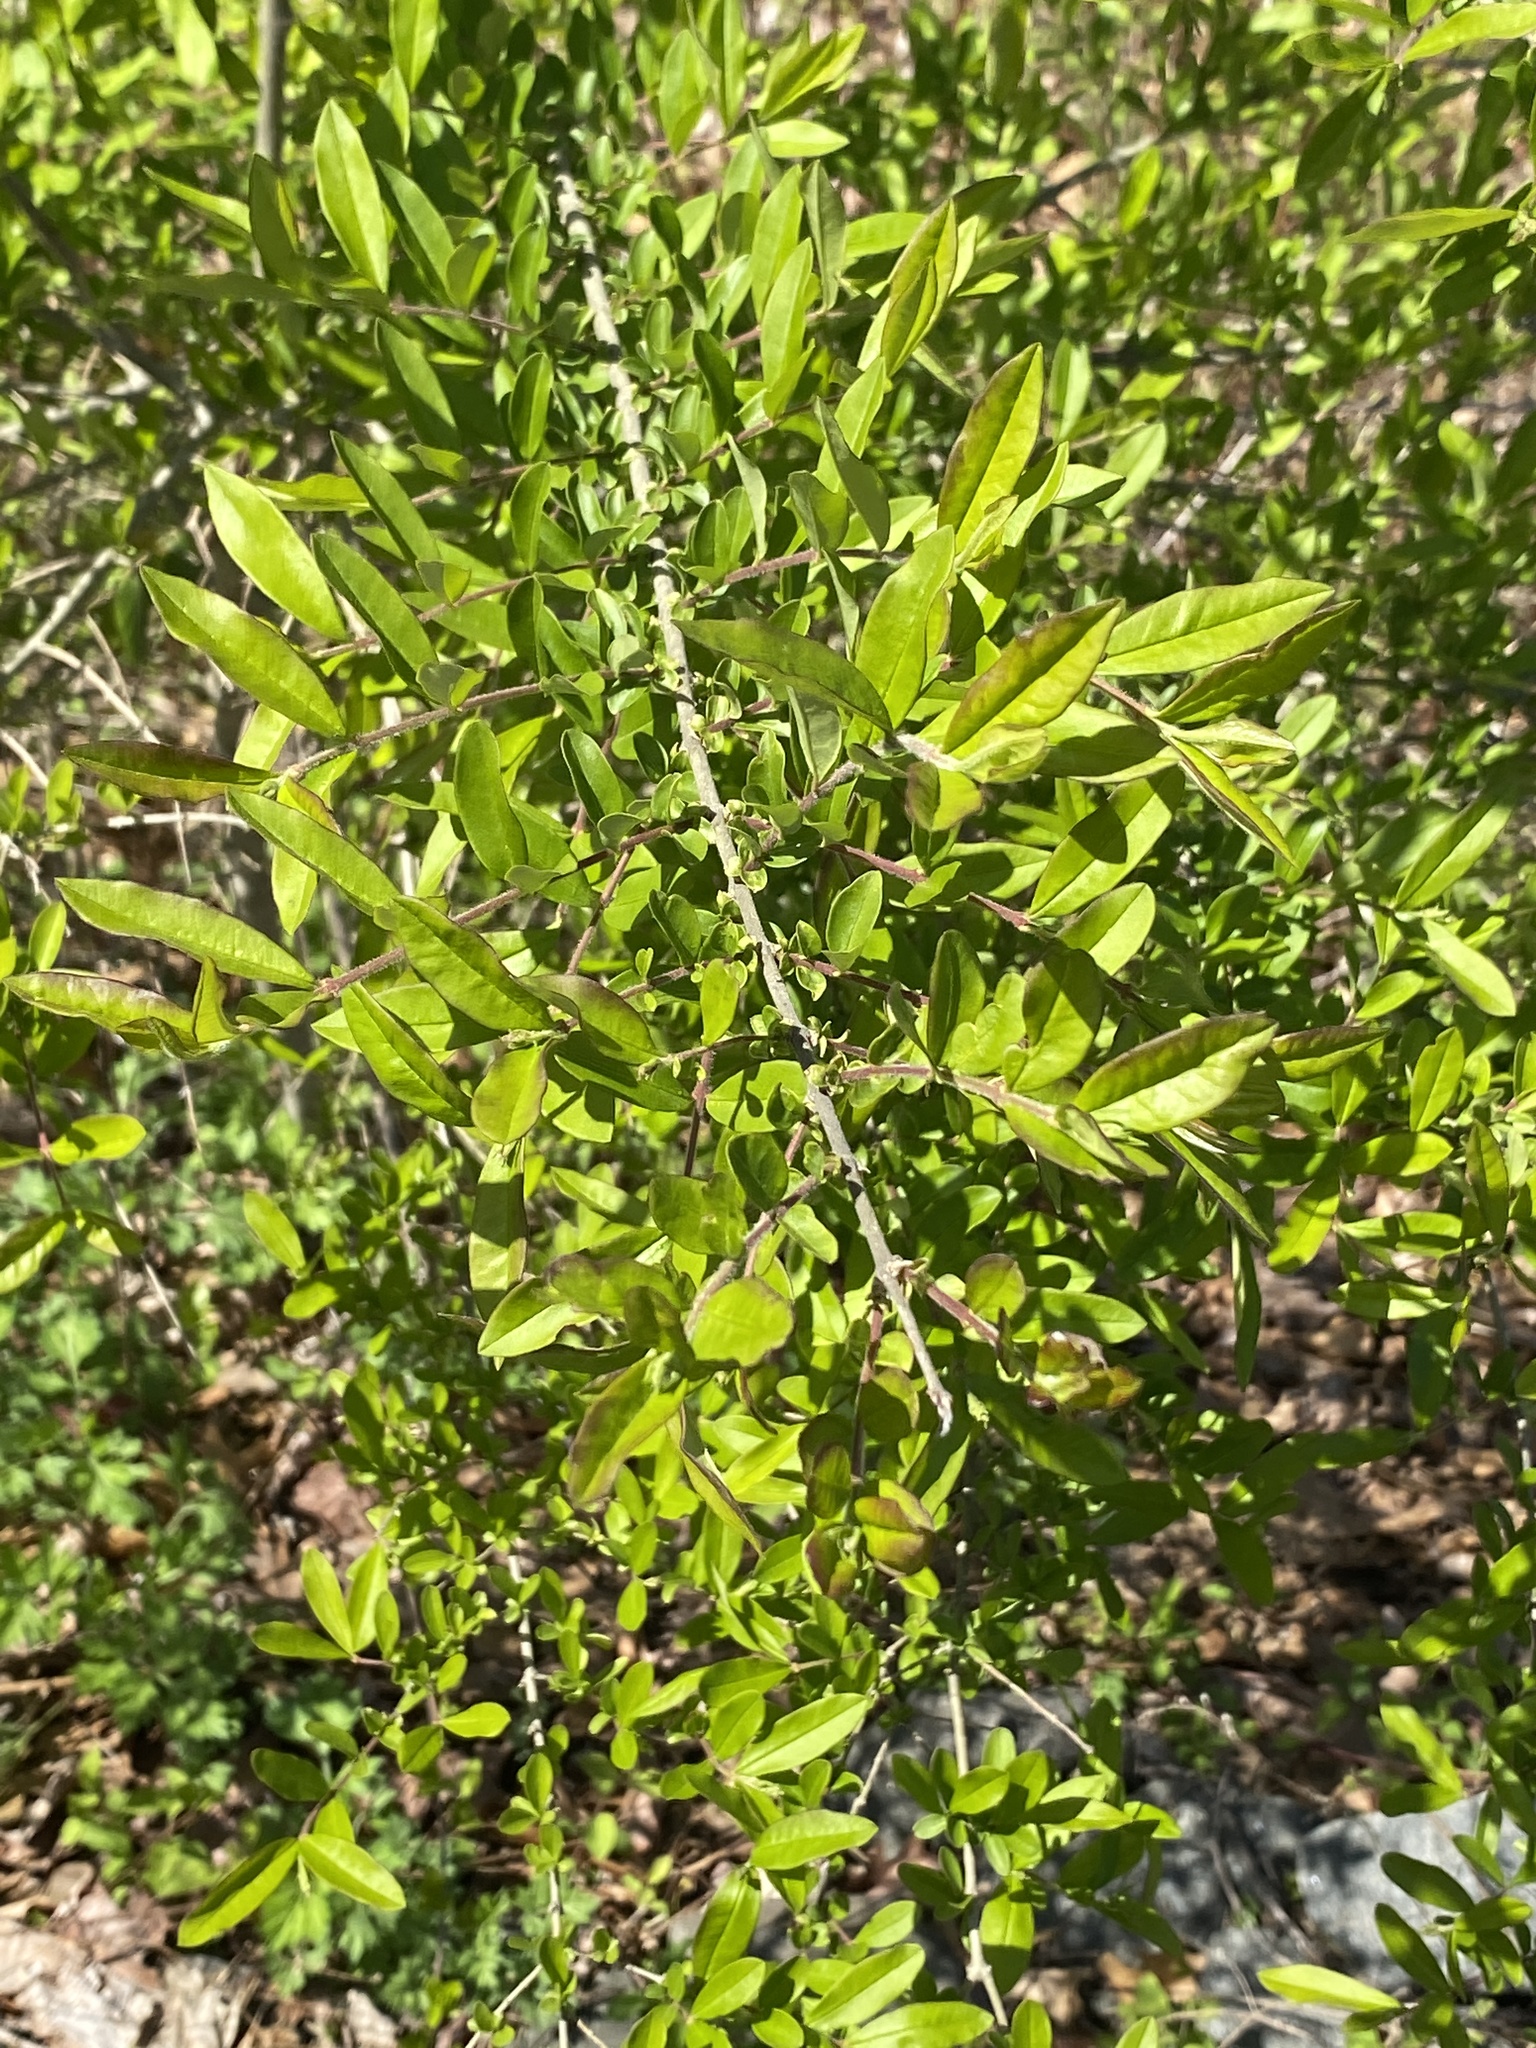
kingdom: Plantae
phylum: Tracheophyta
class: Magnoliopsida
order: Lamiales
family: Oleaceae
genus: Ligustrum
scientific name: Ligustrum obtusifolium
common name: Border privet
